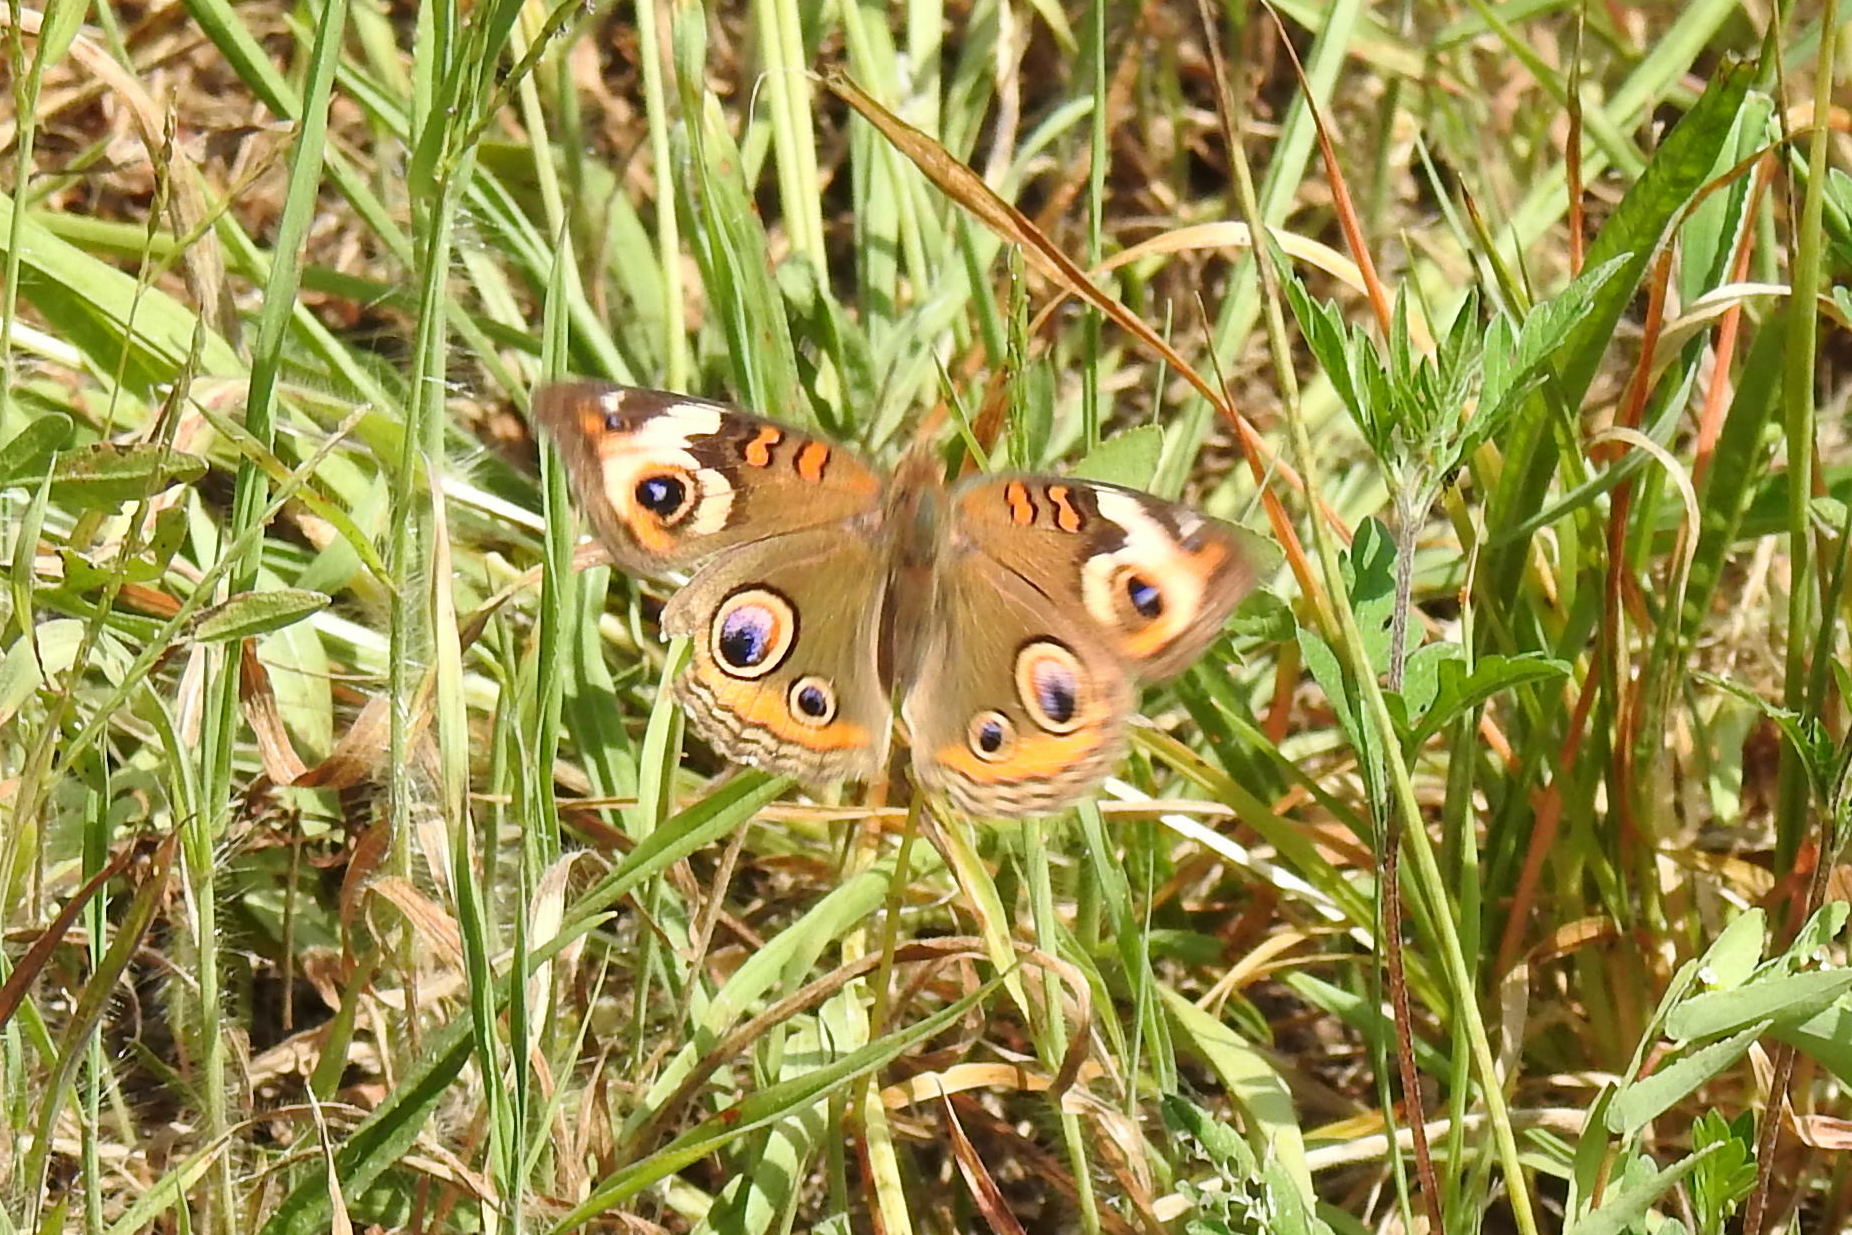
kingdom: Animalia
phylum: Arthropoda
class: Insecta
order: Lepidoptera
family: Nymphalidae
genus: Junonia
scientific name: Junonia coenia
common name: Common buckeye
